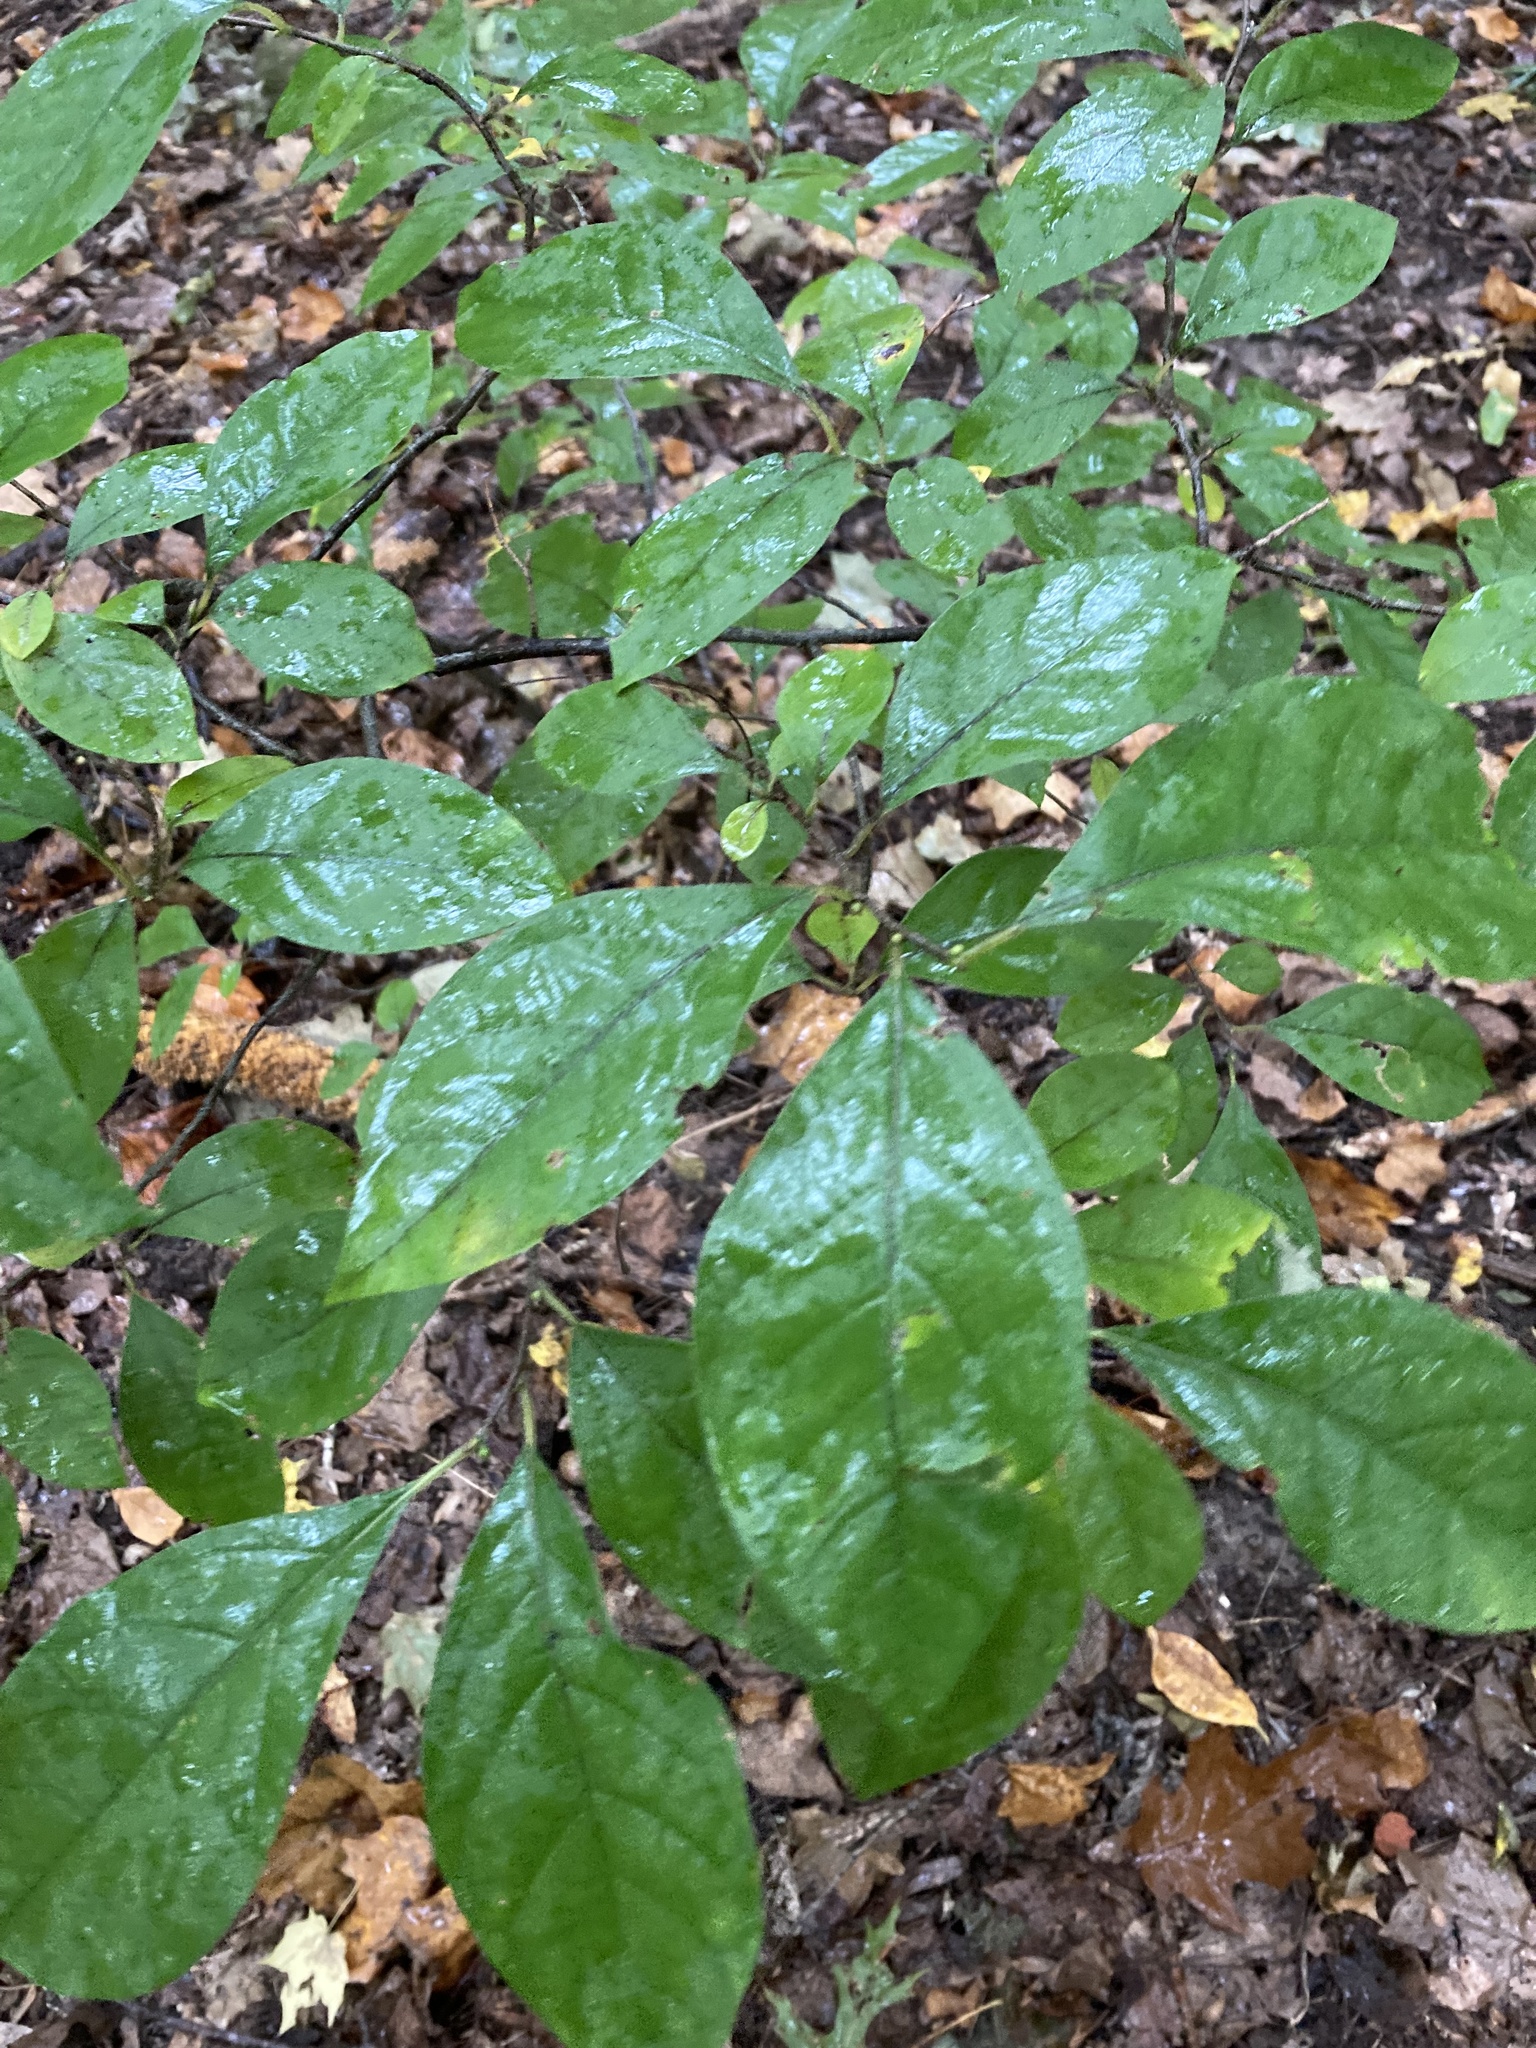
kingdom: Plantae
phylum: Tracheophyta
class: Magnoliopsida
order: Laurales
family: Lauraceae
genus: Lindera
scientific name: Lindera benzoin
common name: Spicebush
